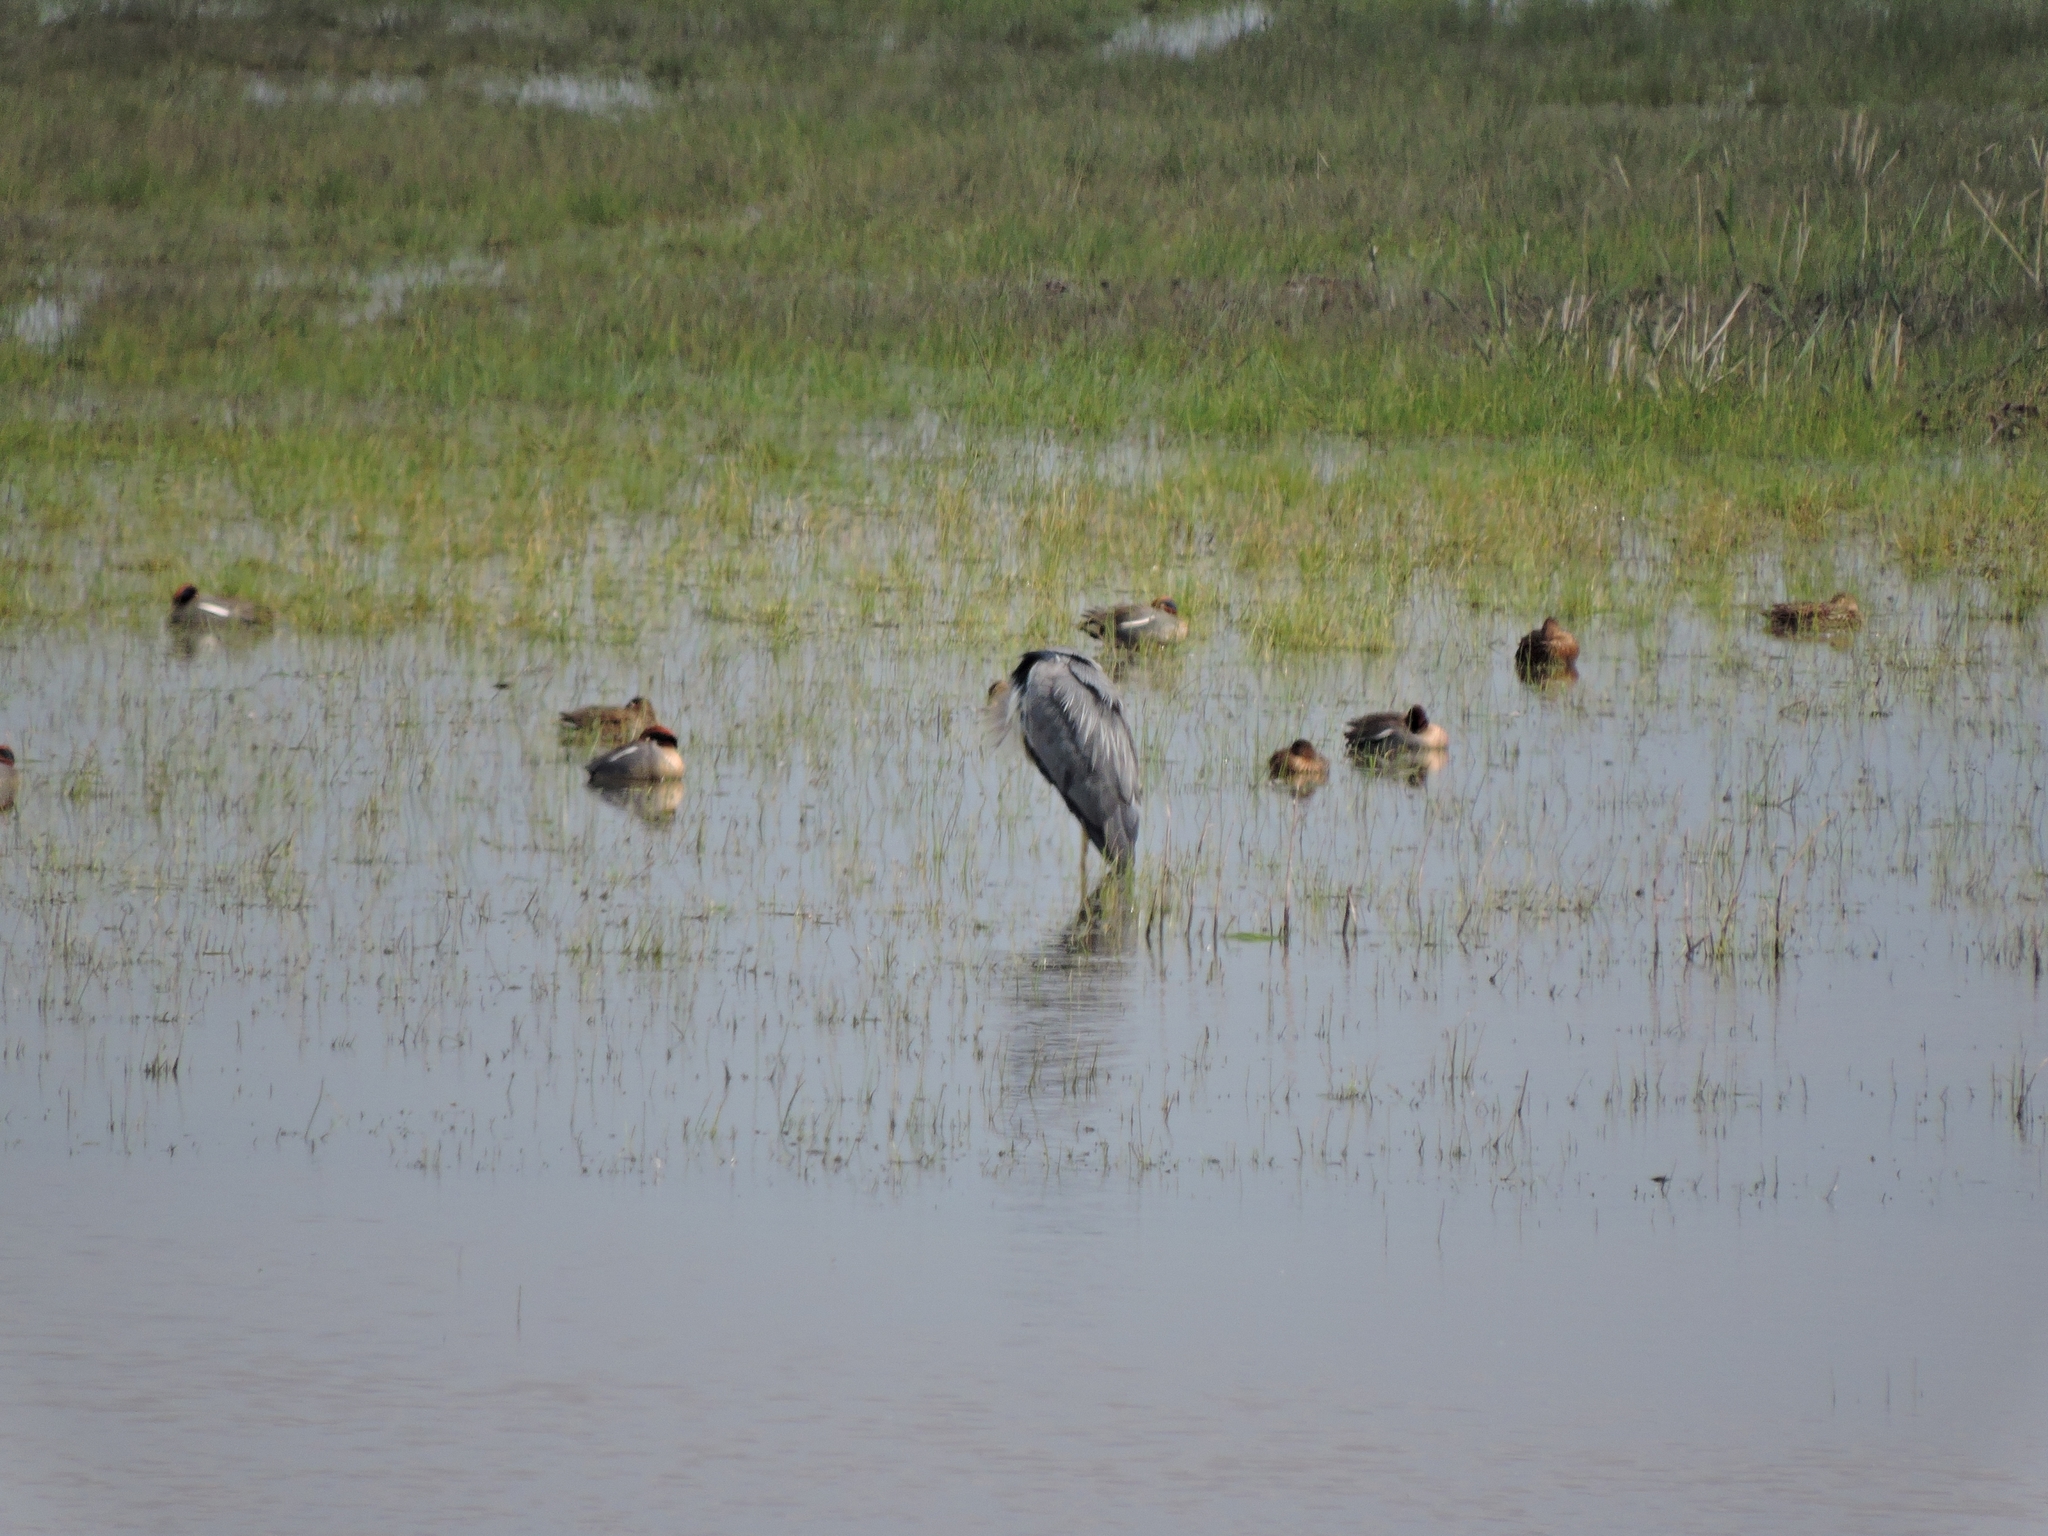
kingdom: Animalia
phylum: Chordata
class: Aves
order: Pelecaniformes
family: Ardeidae
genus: Ardea
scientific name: Ardea cinerea
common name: Grey heron
